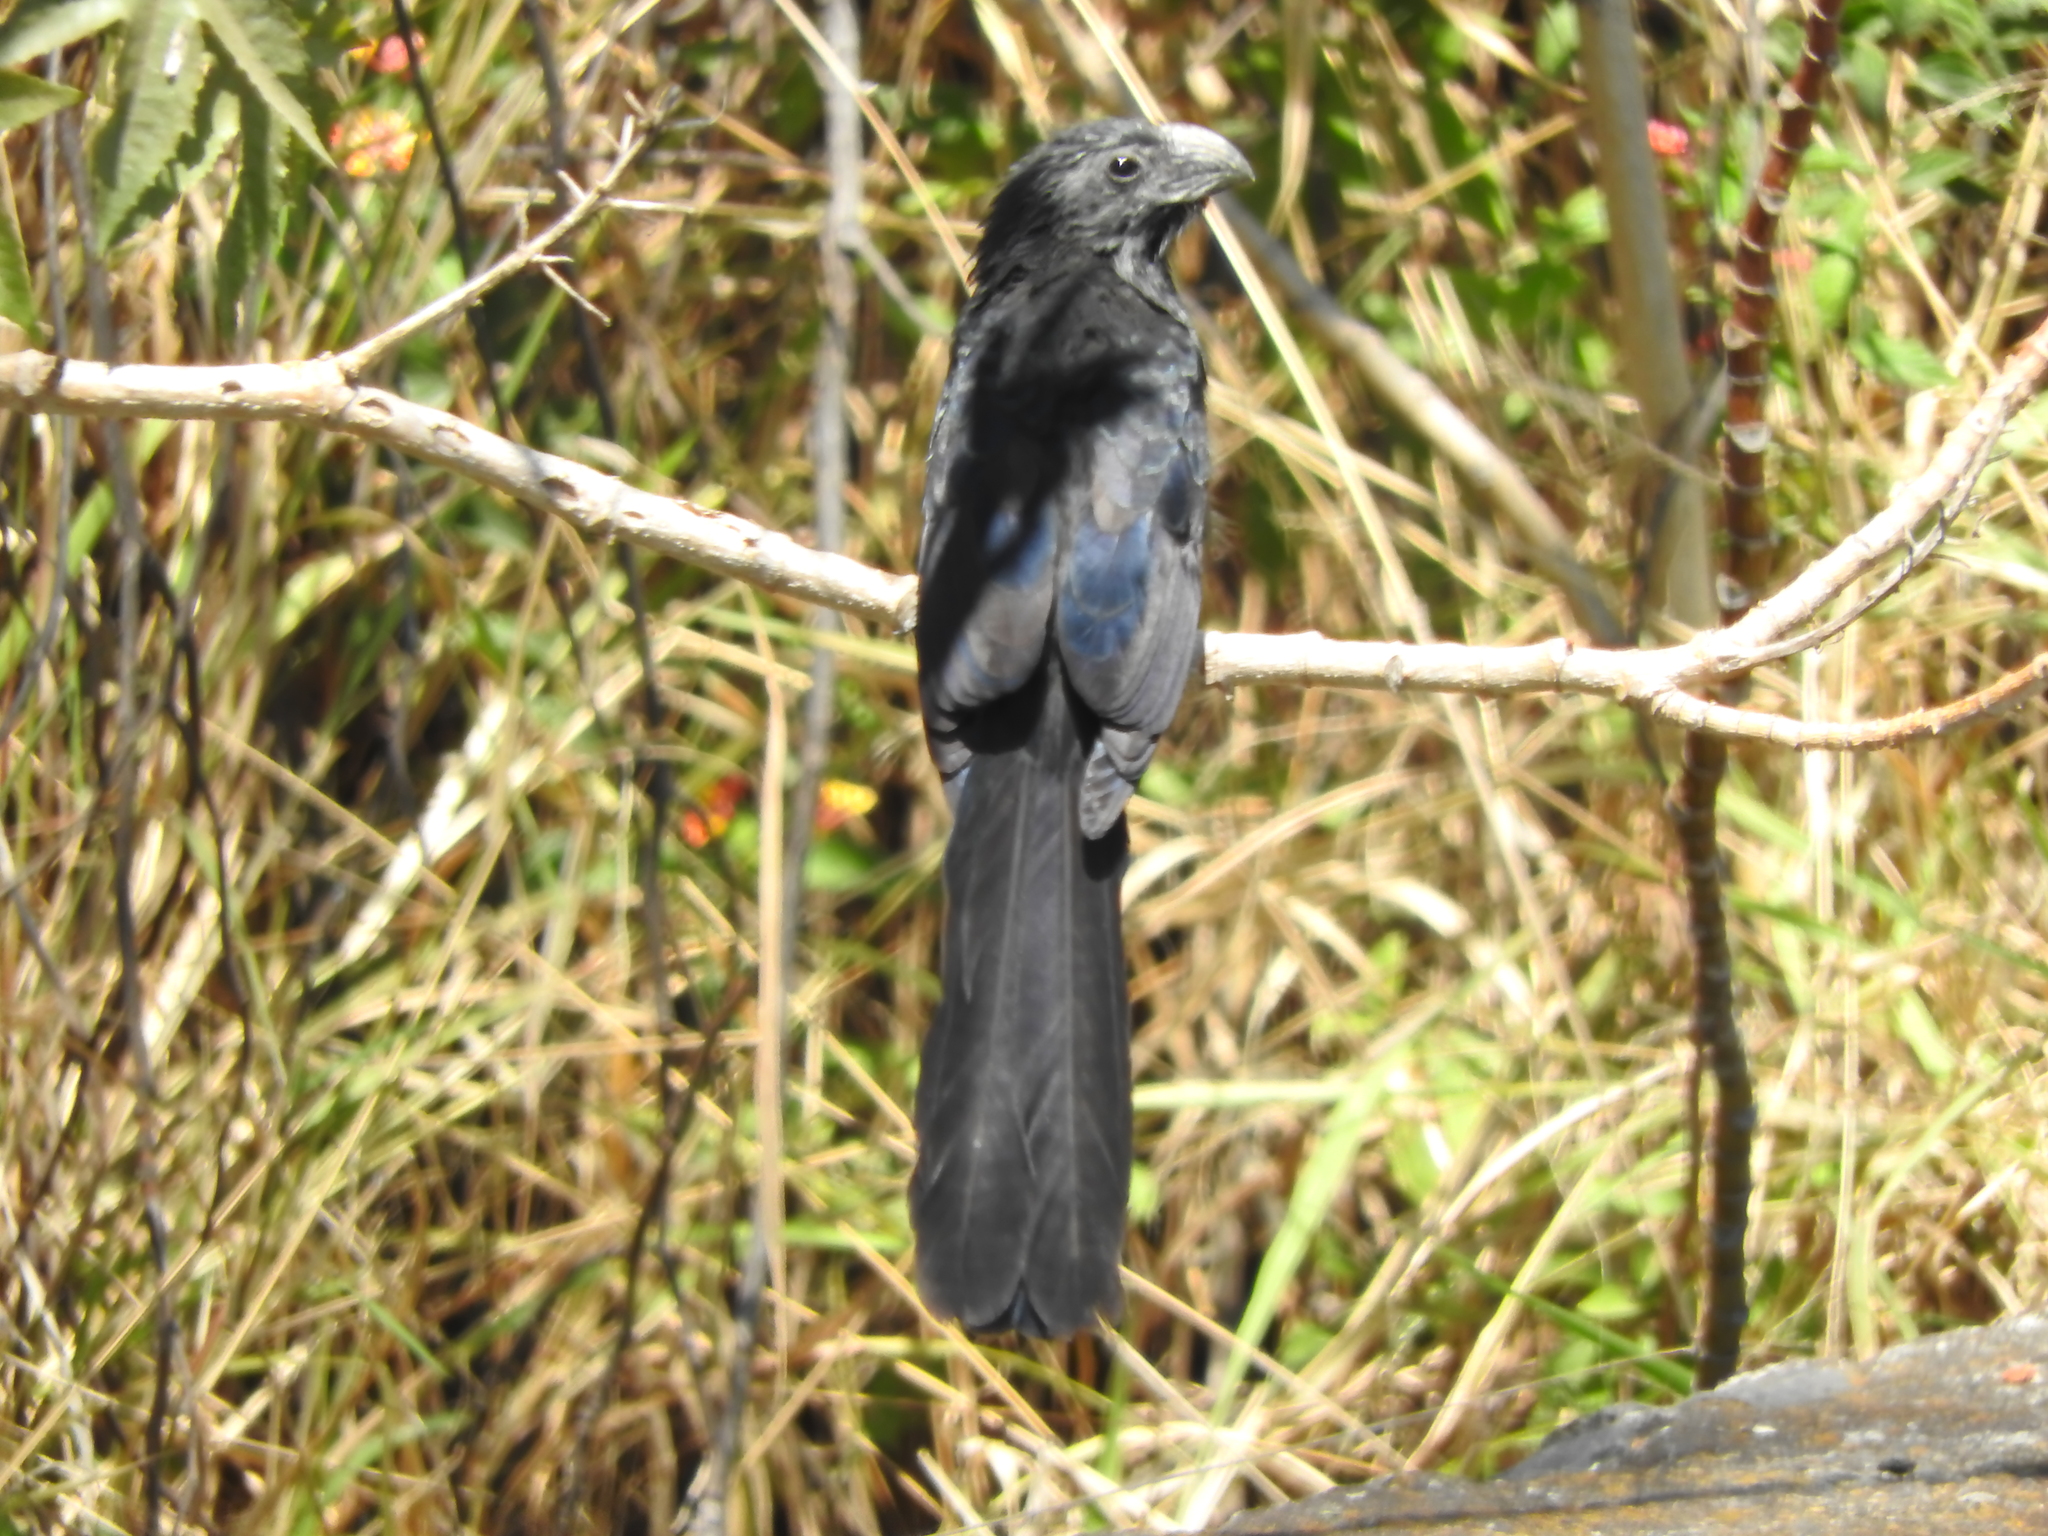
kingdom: Animalia
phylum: Chordata
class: Aves
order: Cuculiformes
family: Cuculidae
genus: Crotophaga
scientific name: Crotophaga sulcirostris
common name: Groove-billed ani
